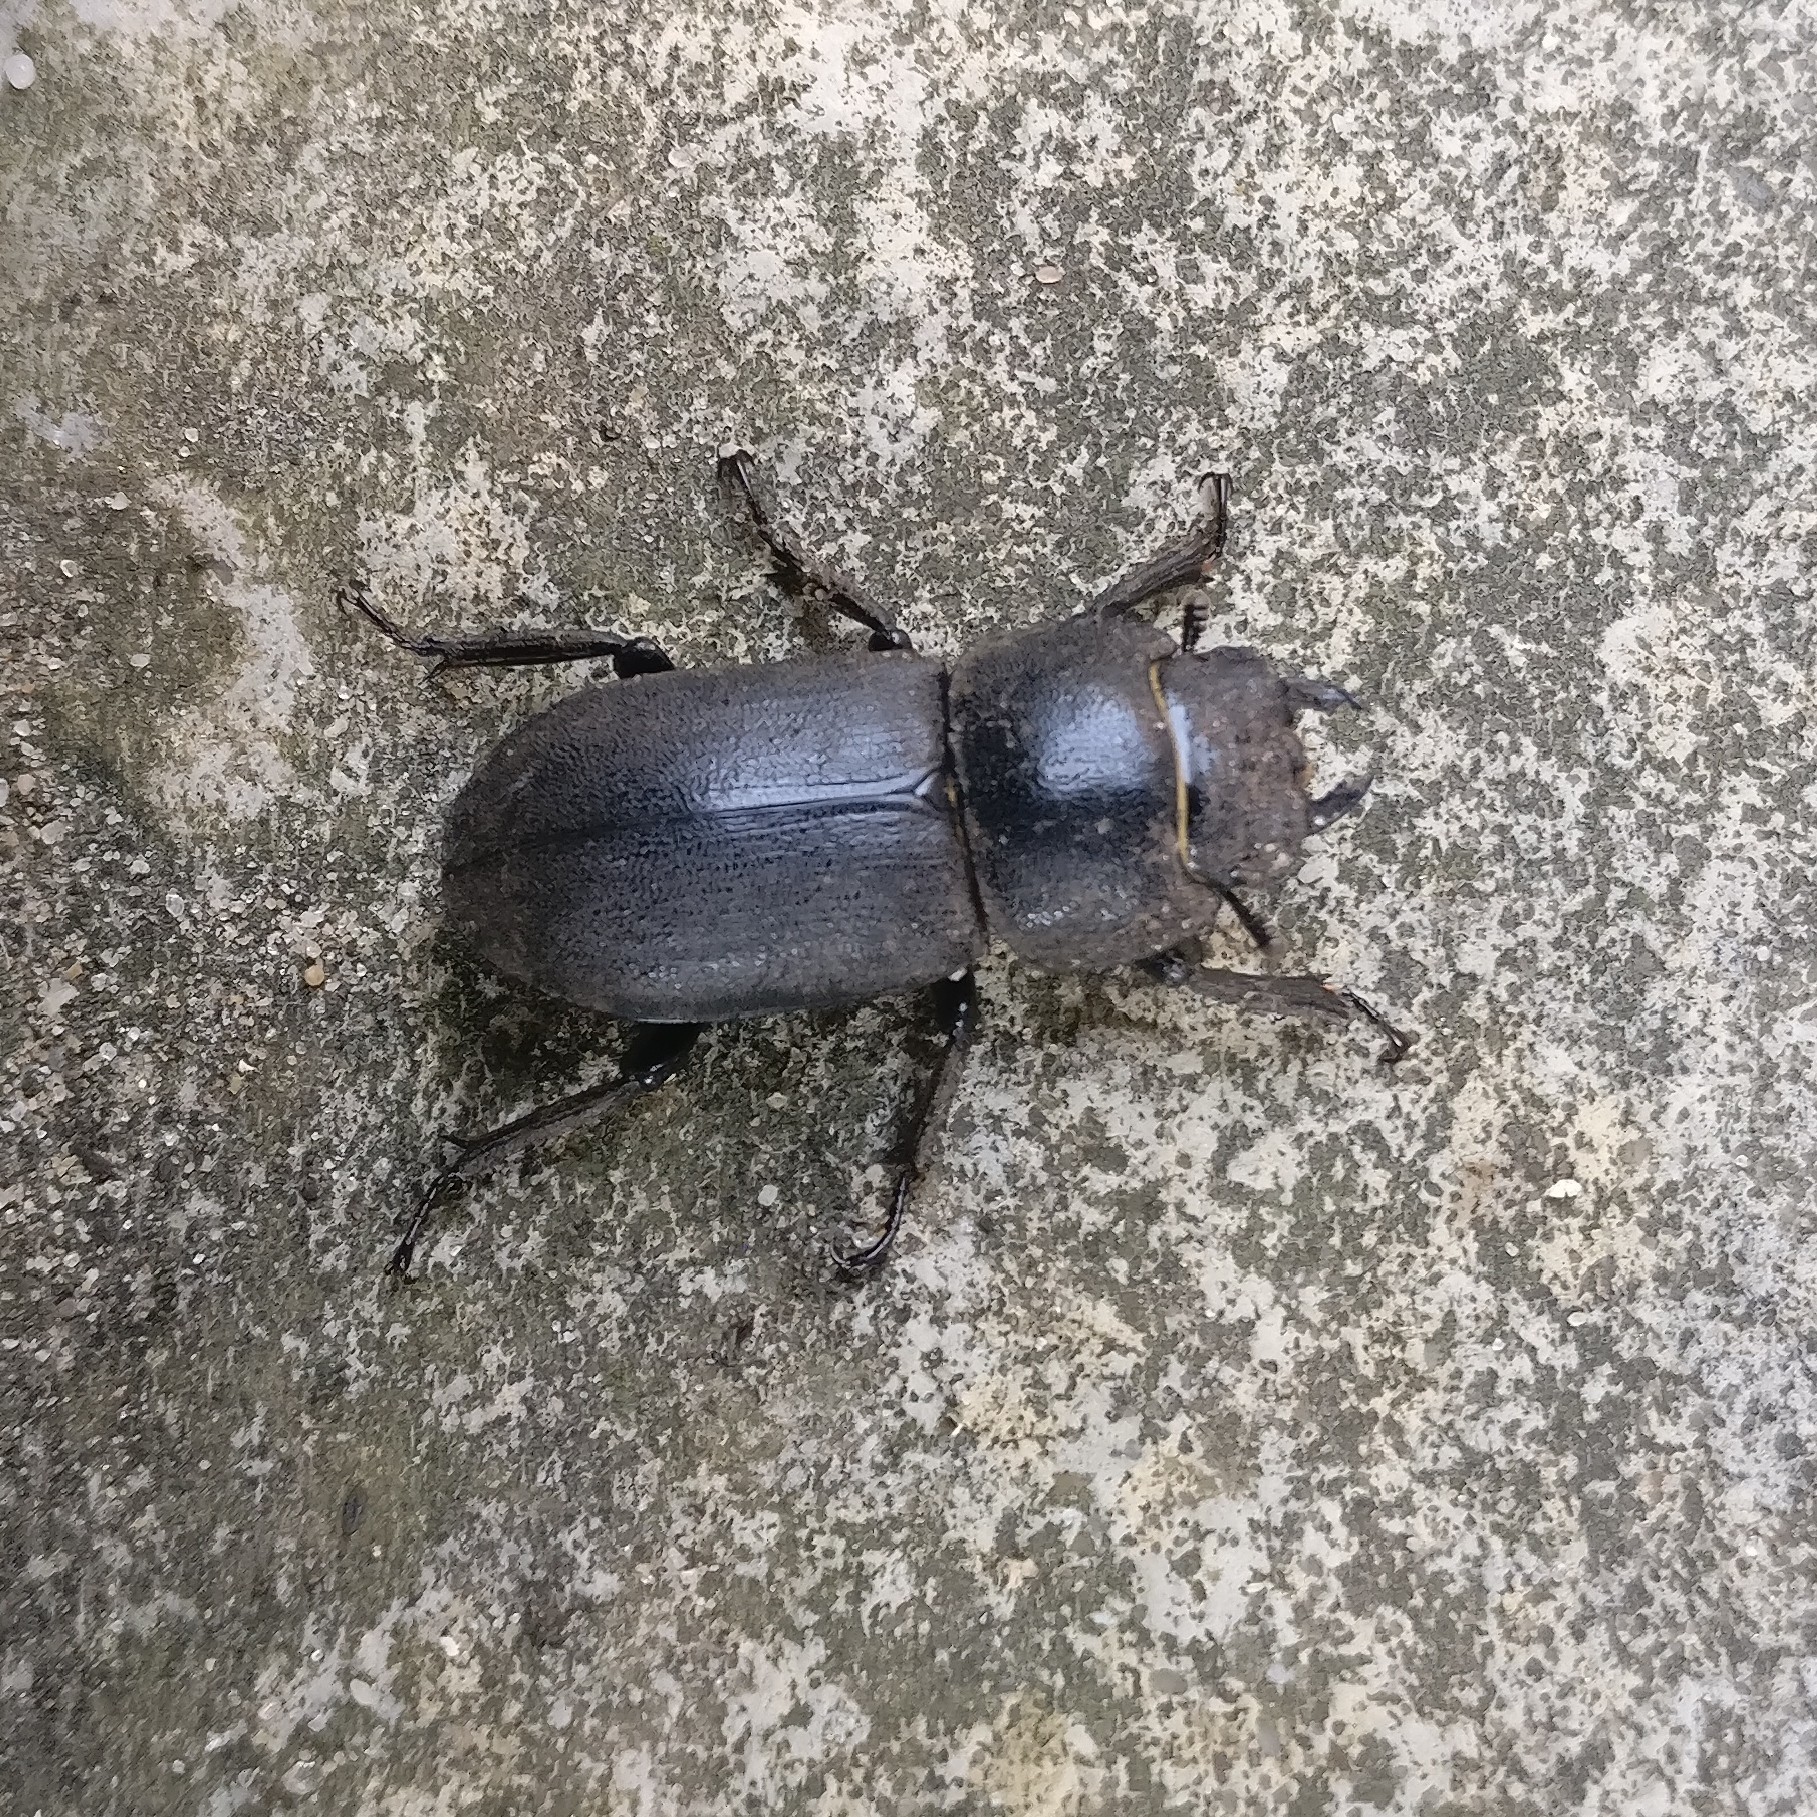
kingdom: Animalia
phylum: Arthropoda
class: Insecta
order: Coleoptera
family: Lucanidae
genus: Dorcus
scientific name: Dorcus parallelipipedus
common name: Lesser stag beetle
